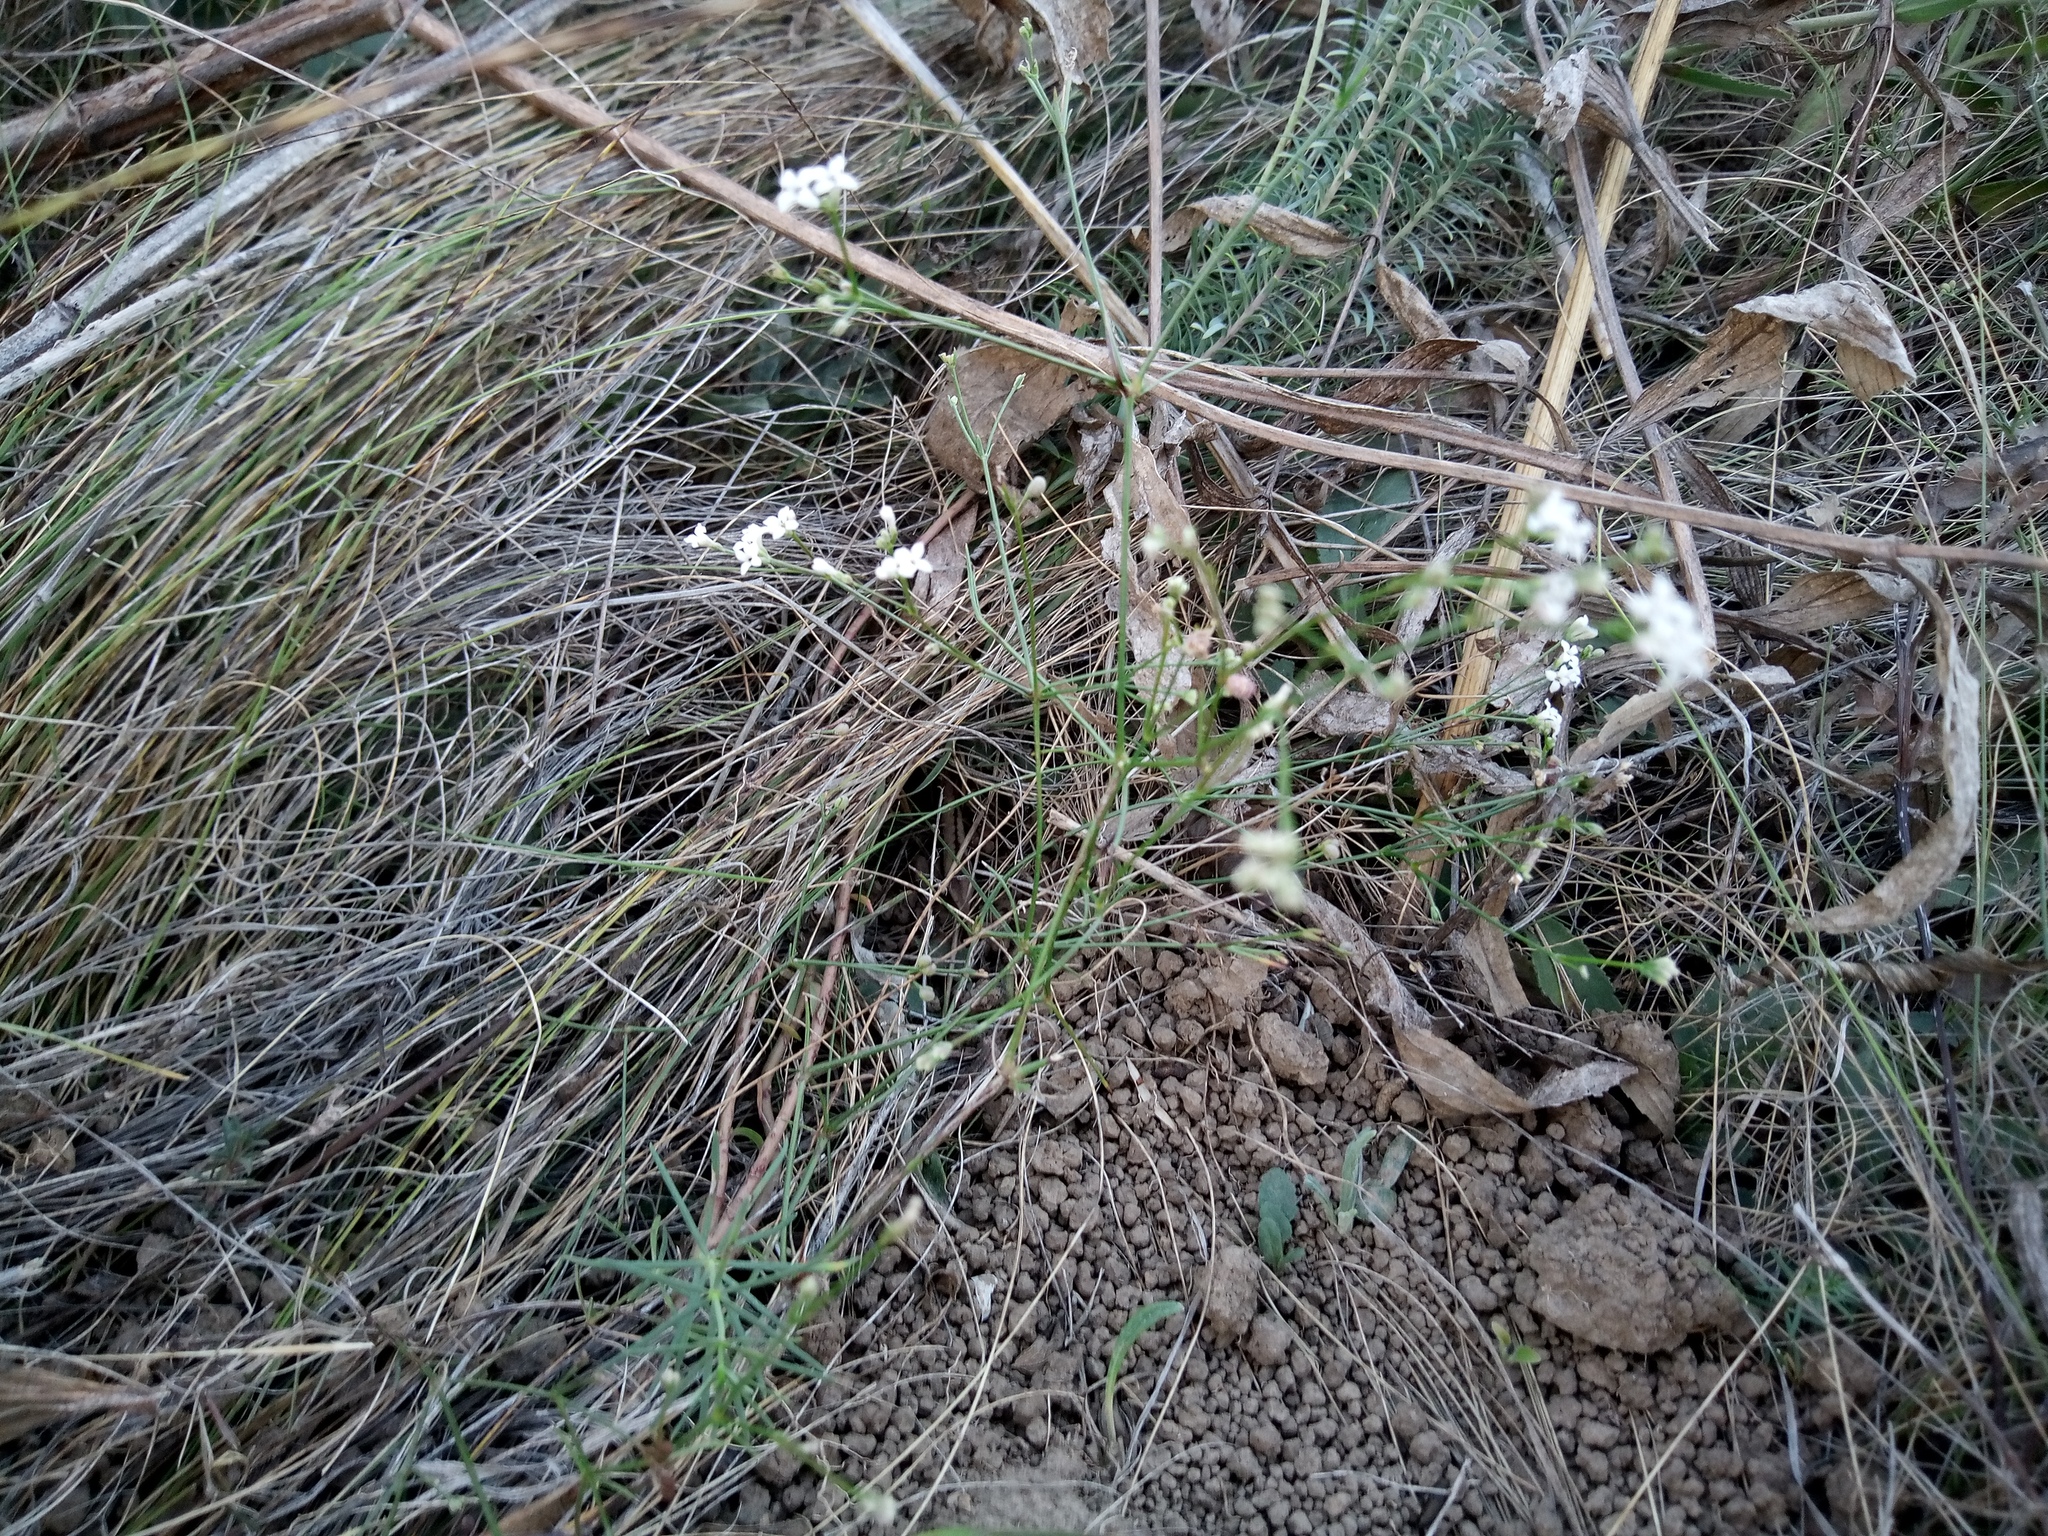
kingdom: Plantae
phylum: Tracheophyta
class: Magnoliopsida
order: Gentianales
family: Rubiaceae
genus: Cynanchica
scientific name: Cynanchica pyrenaica
